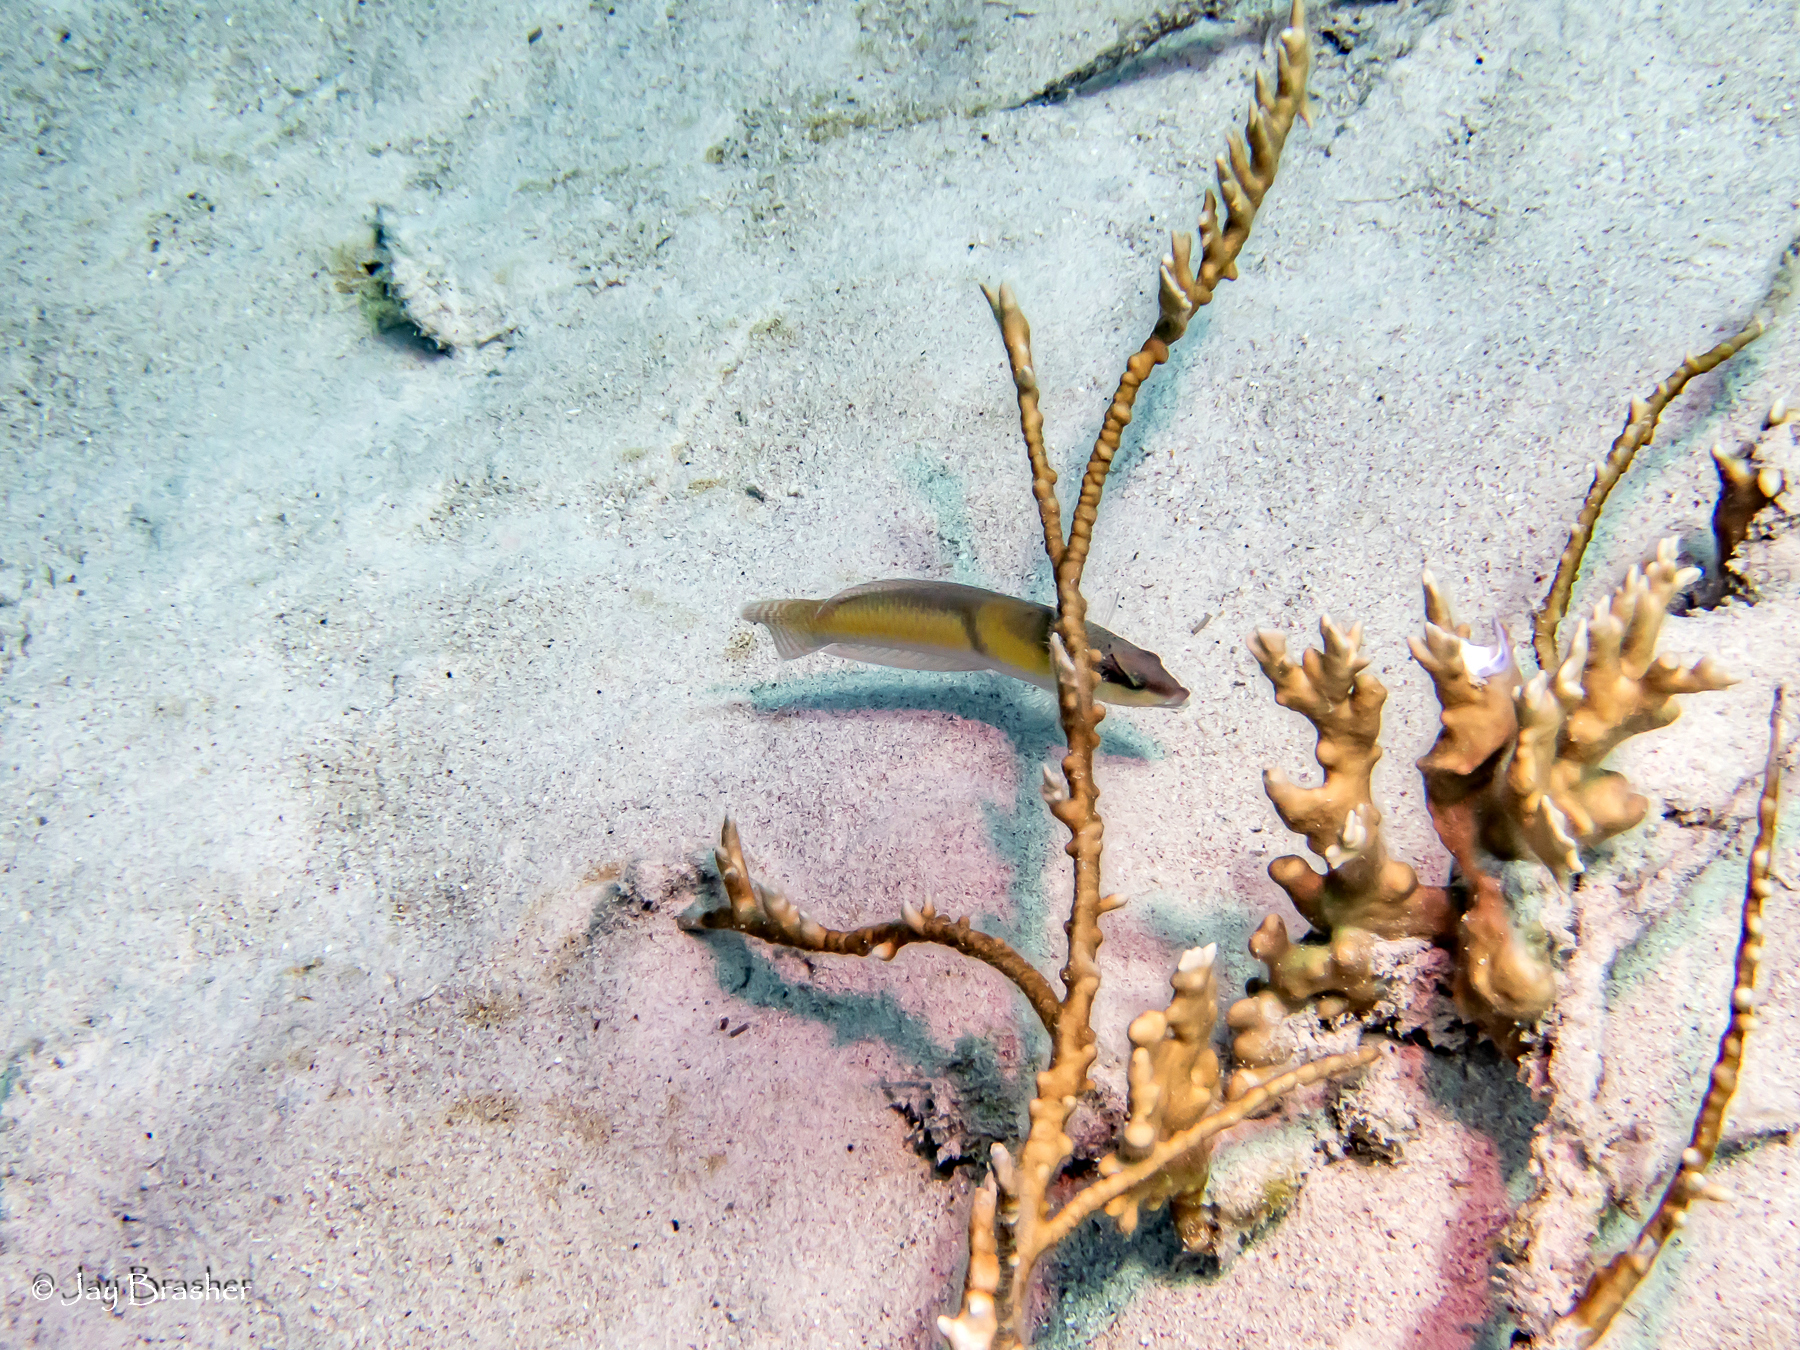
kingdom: Animalia
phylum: Chordata
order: Perciformes
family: Labridae
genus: Halichoeres
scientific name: Halichoeres garnoti
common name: Yellowhead wrasse
